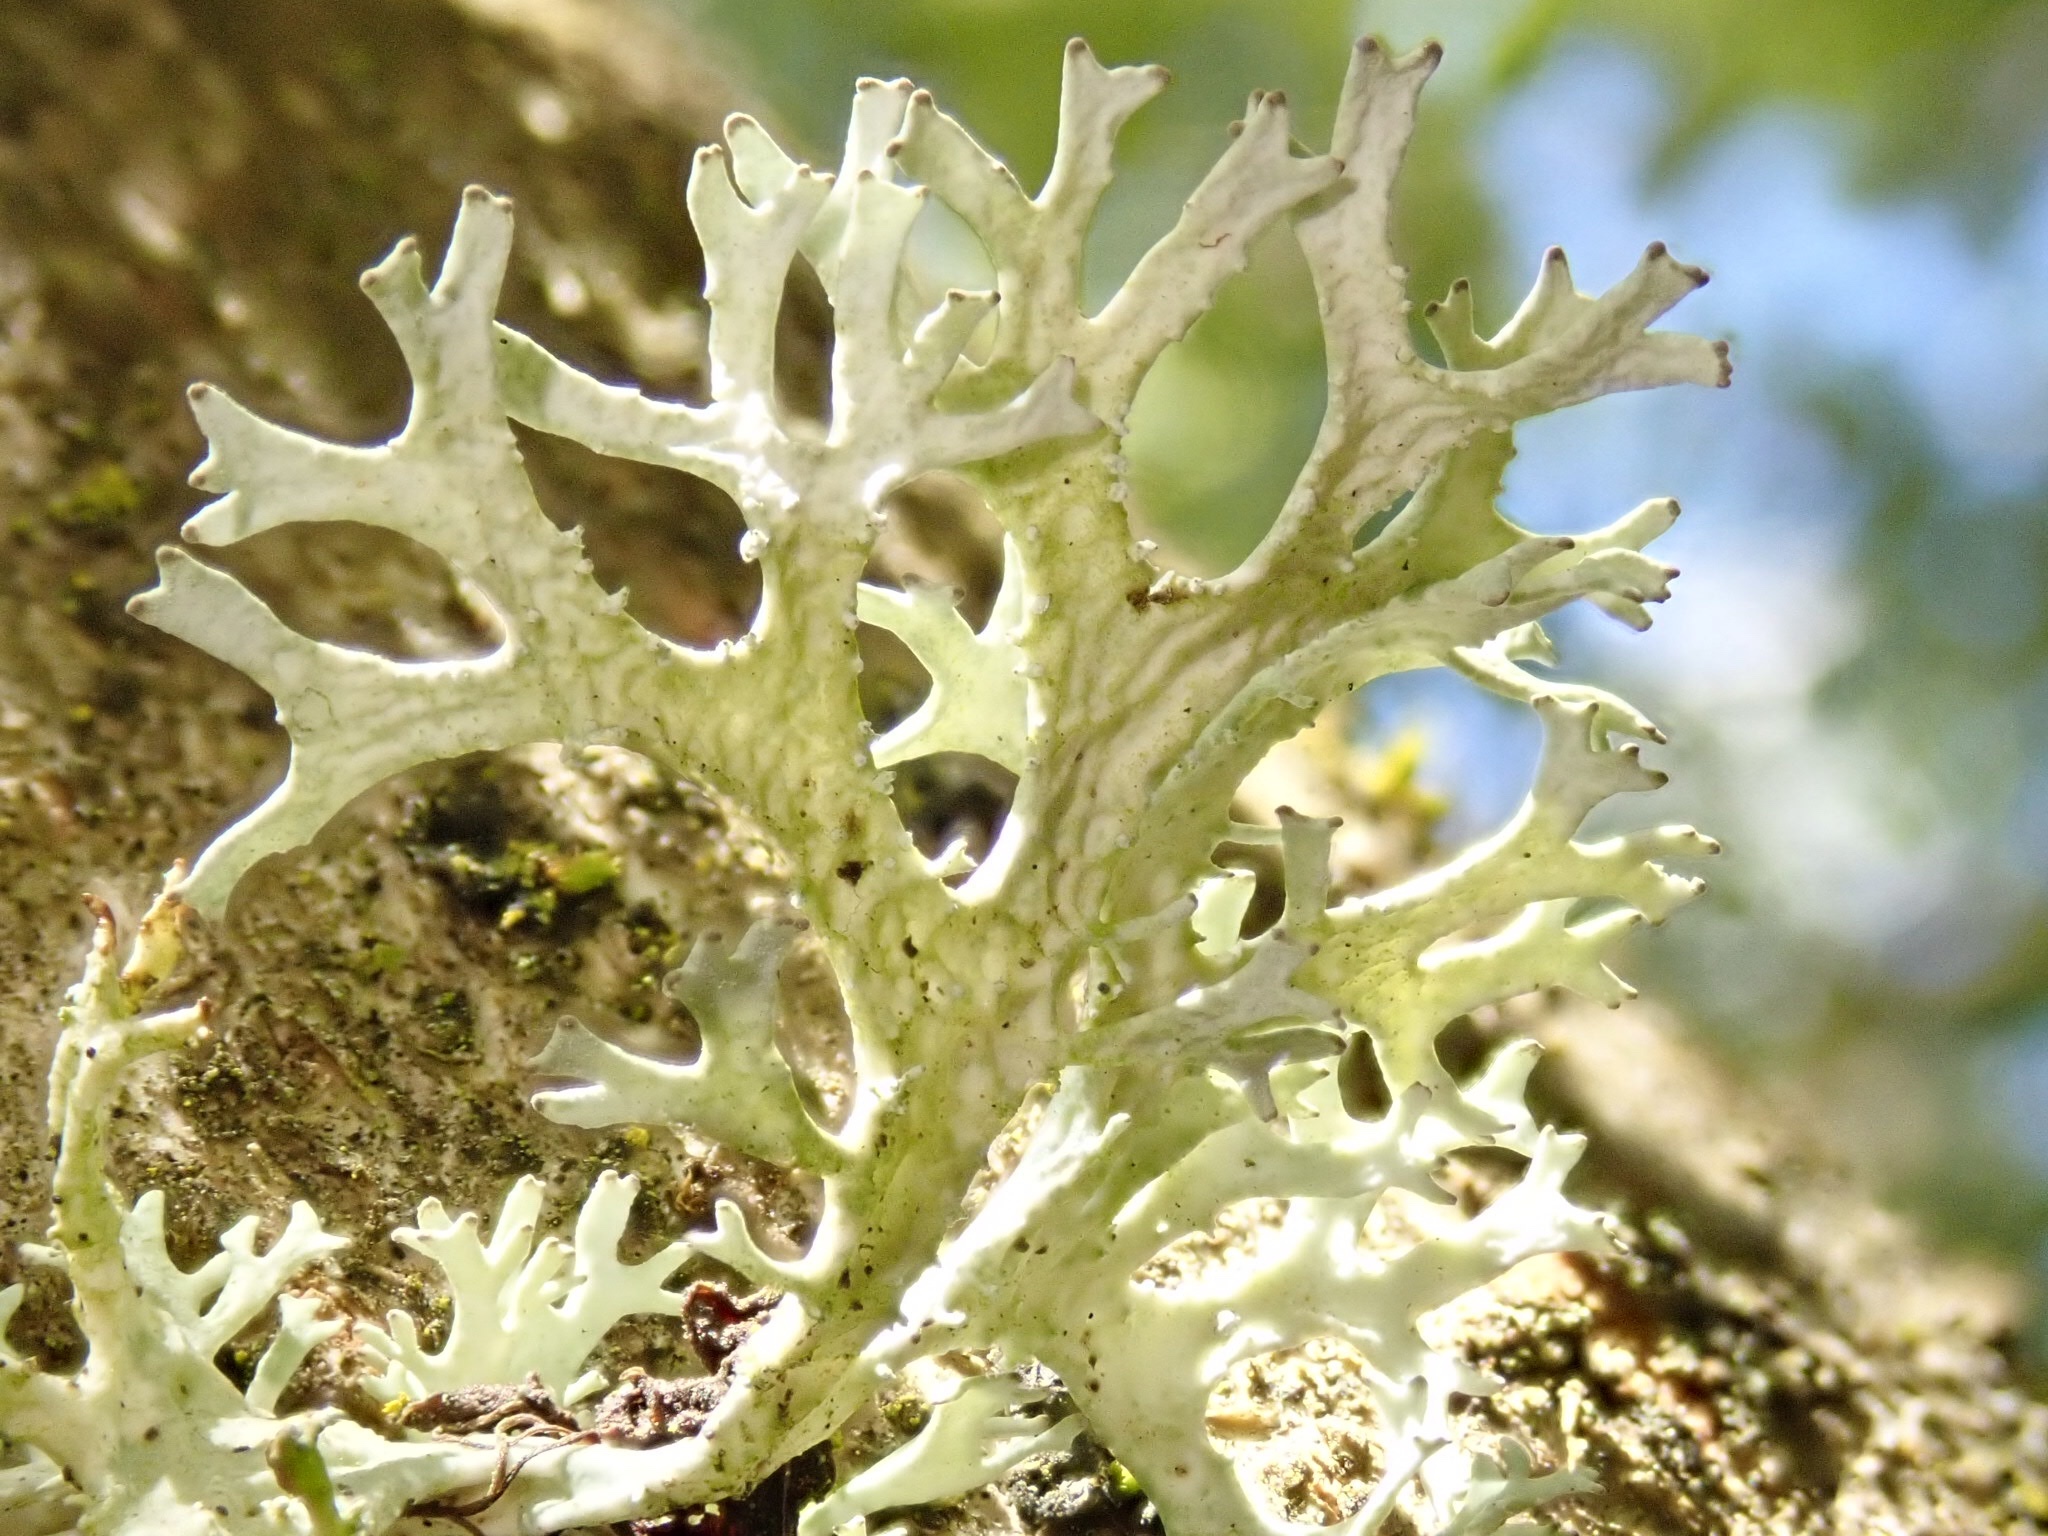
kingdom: Fungi
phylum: Ascomycota
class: Lecanoromycetes
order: Lecanorales
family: Parmeliaceae
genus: Evernia
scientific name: Evernia prunastri
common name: Oak moss
